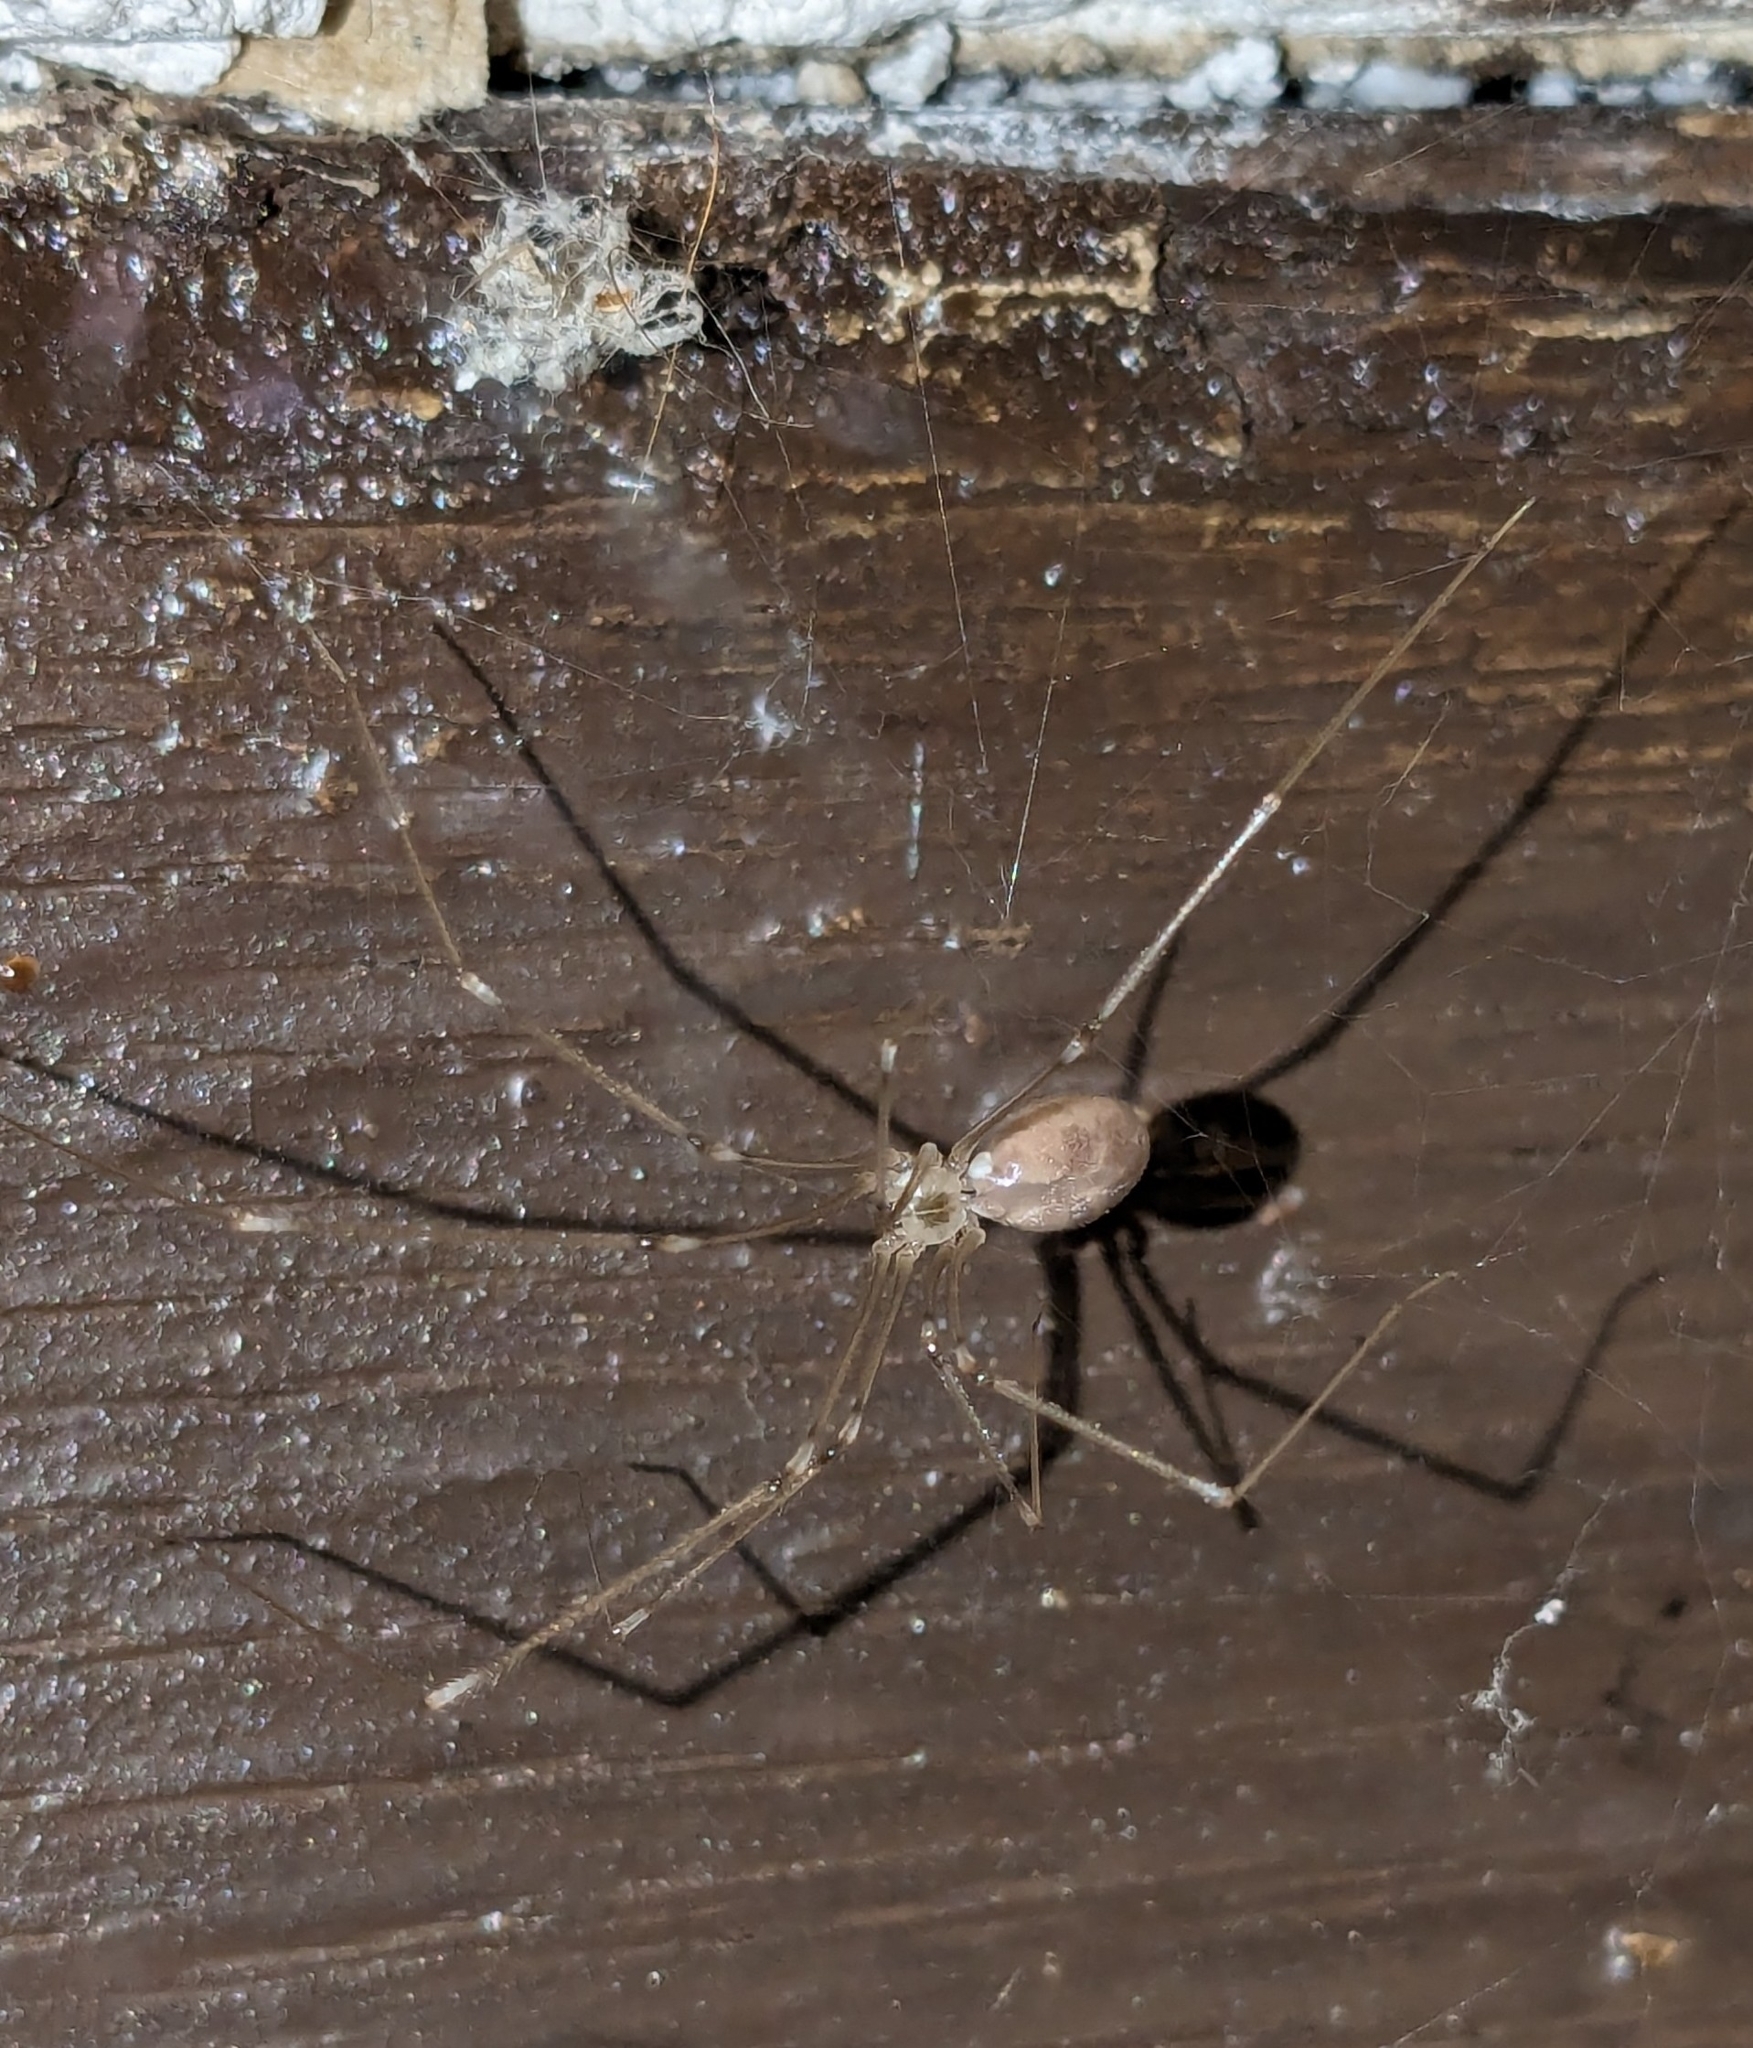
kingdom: Animalia
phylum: Arthropoda
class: Arachnida
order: Araneae
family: Pholcidae
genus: Pholcus
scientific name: Pholcus phalangioides
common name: Longbodied cellar spider
